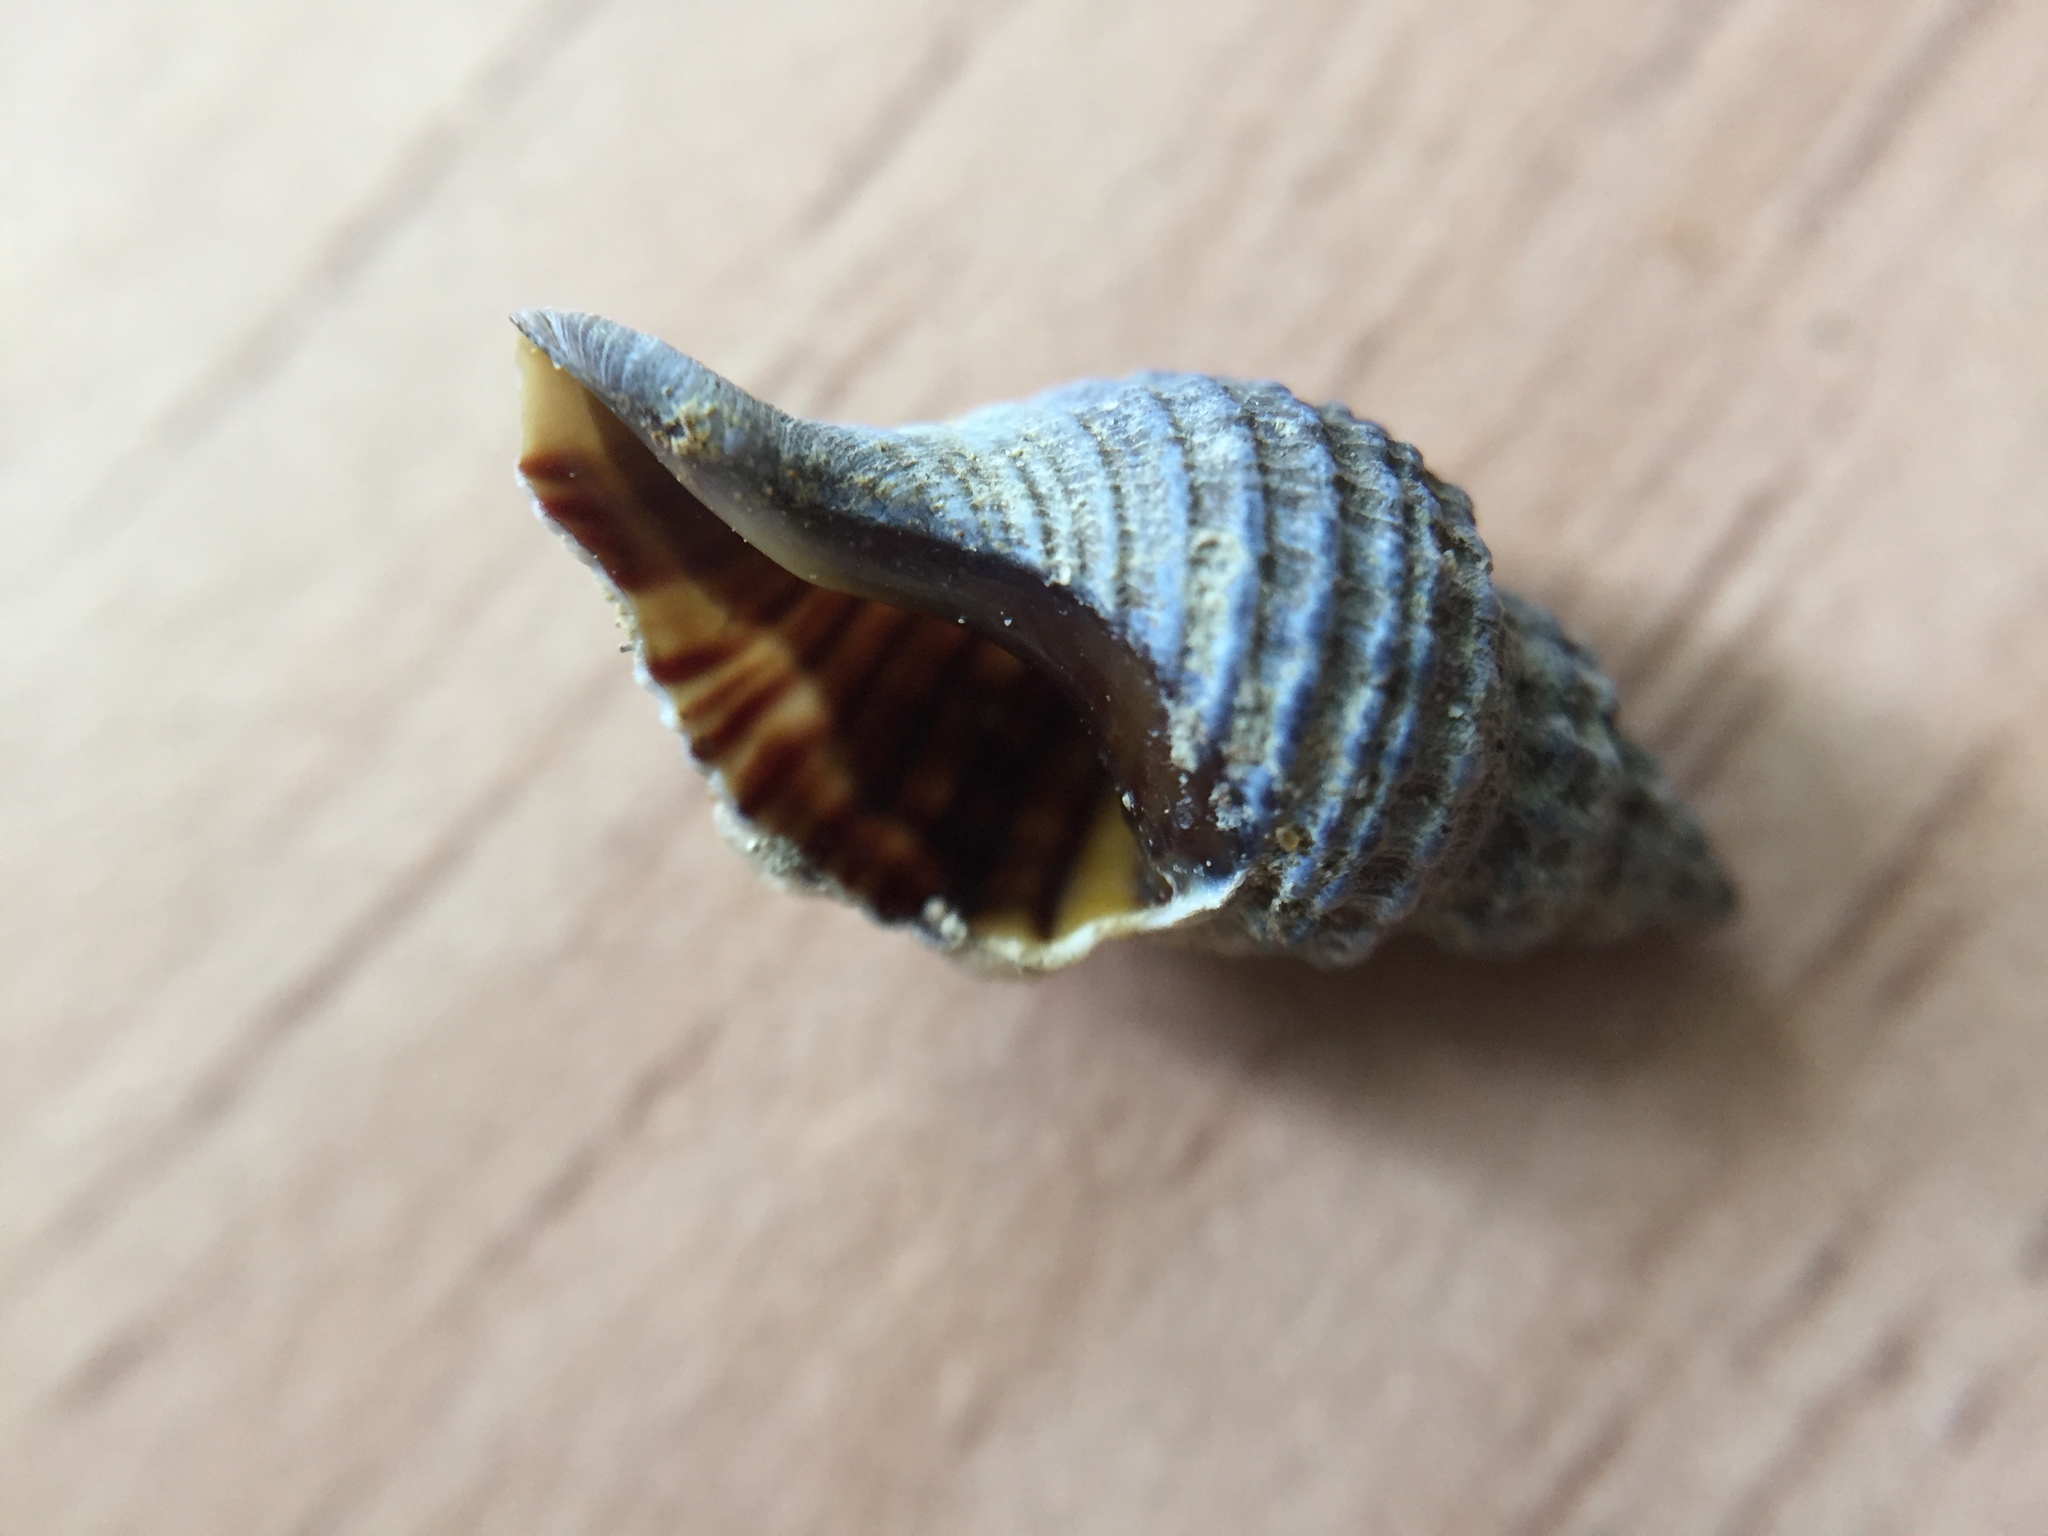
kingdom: Animalia
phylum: Mollusca
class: Gastropoda
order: Neogastropoda
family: Muricidae
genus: Xymene
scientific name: Xymene plebeius
